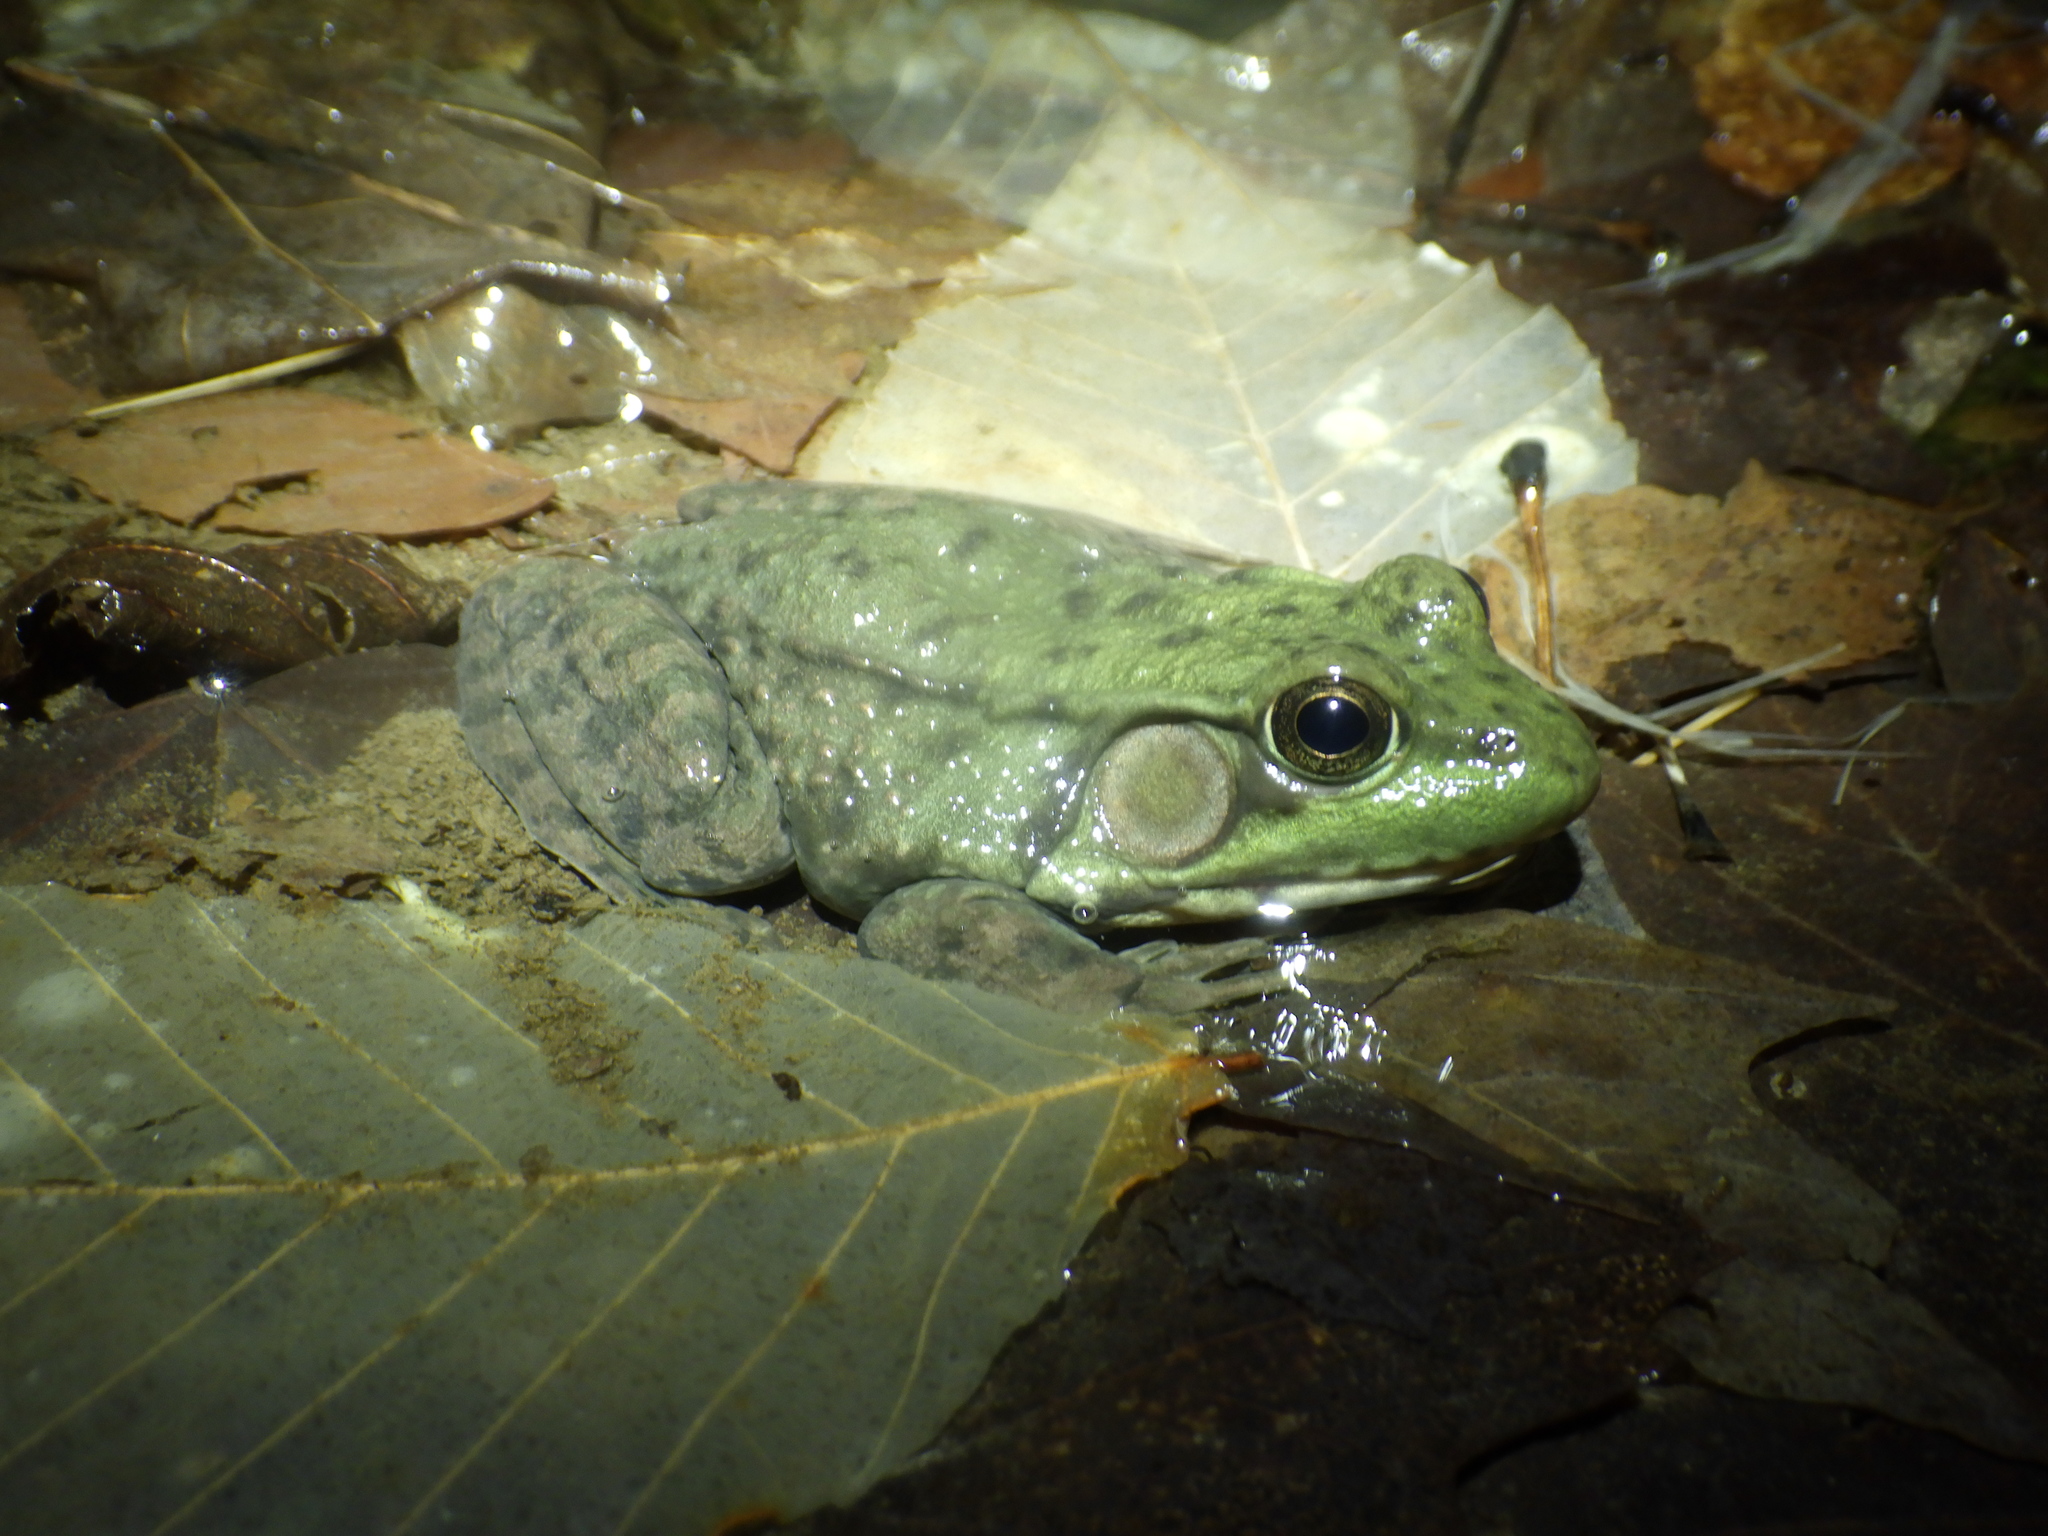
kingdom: Animalia
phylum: Chordata
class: Amphibia
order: Anura
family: Ranidae
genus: Lithobates
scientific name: Lithobates clamitans
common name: Green frog
